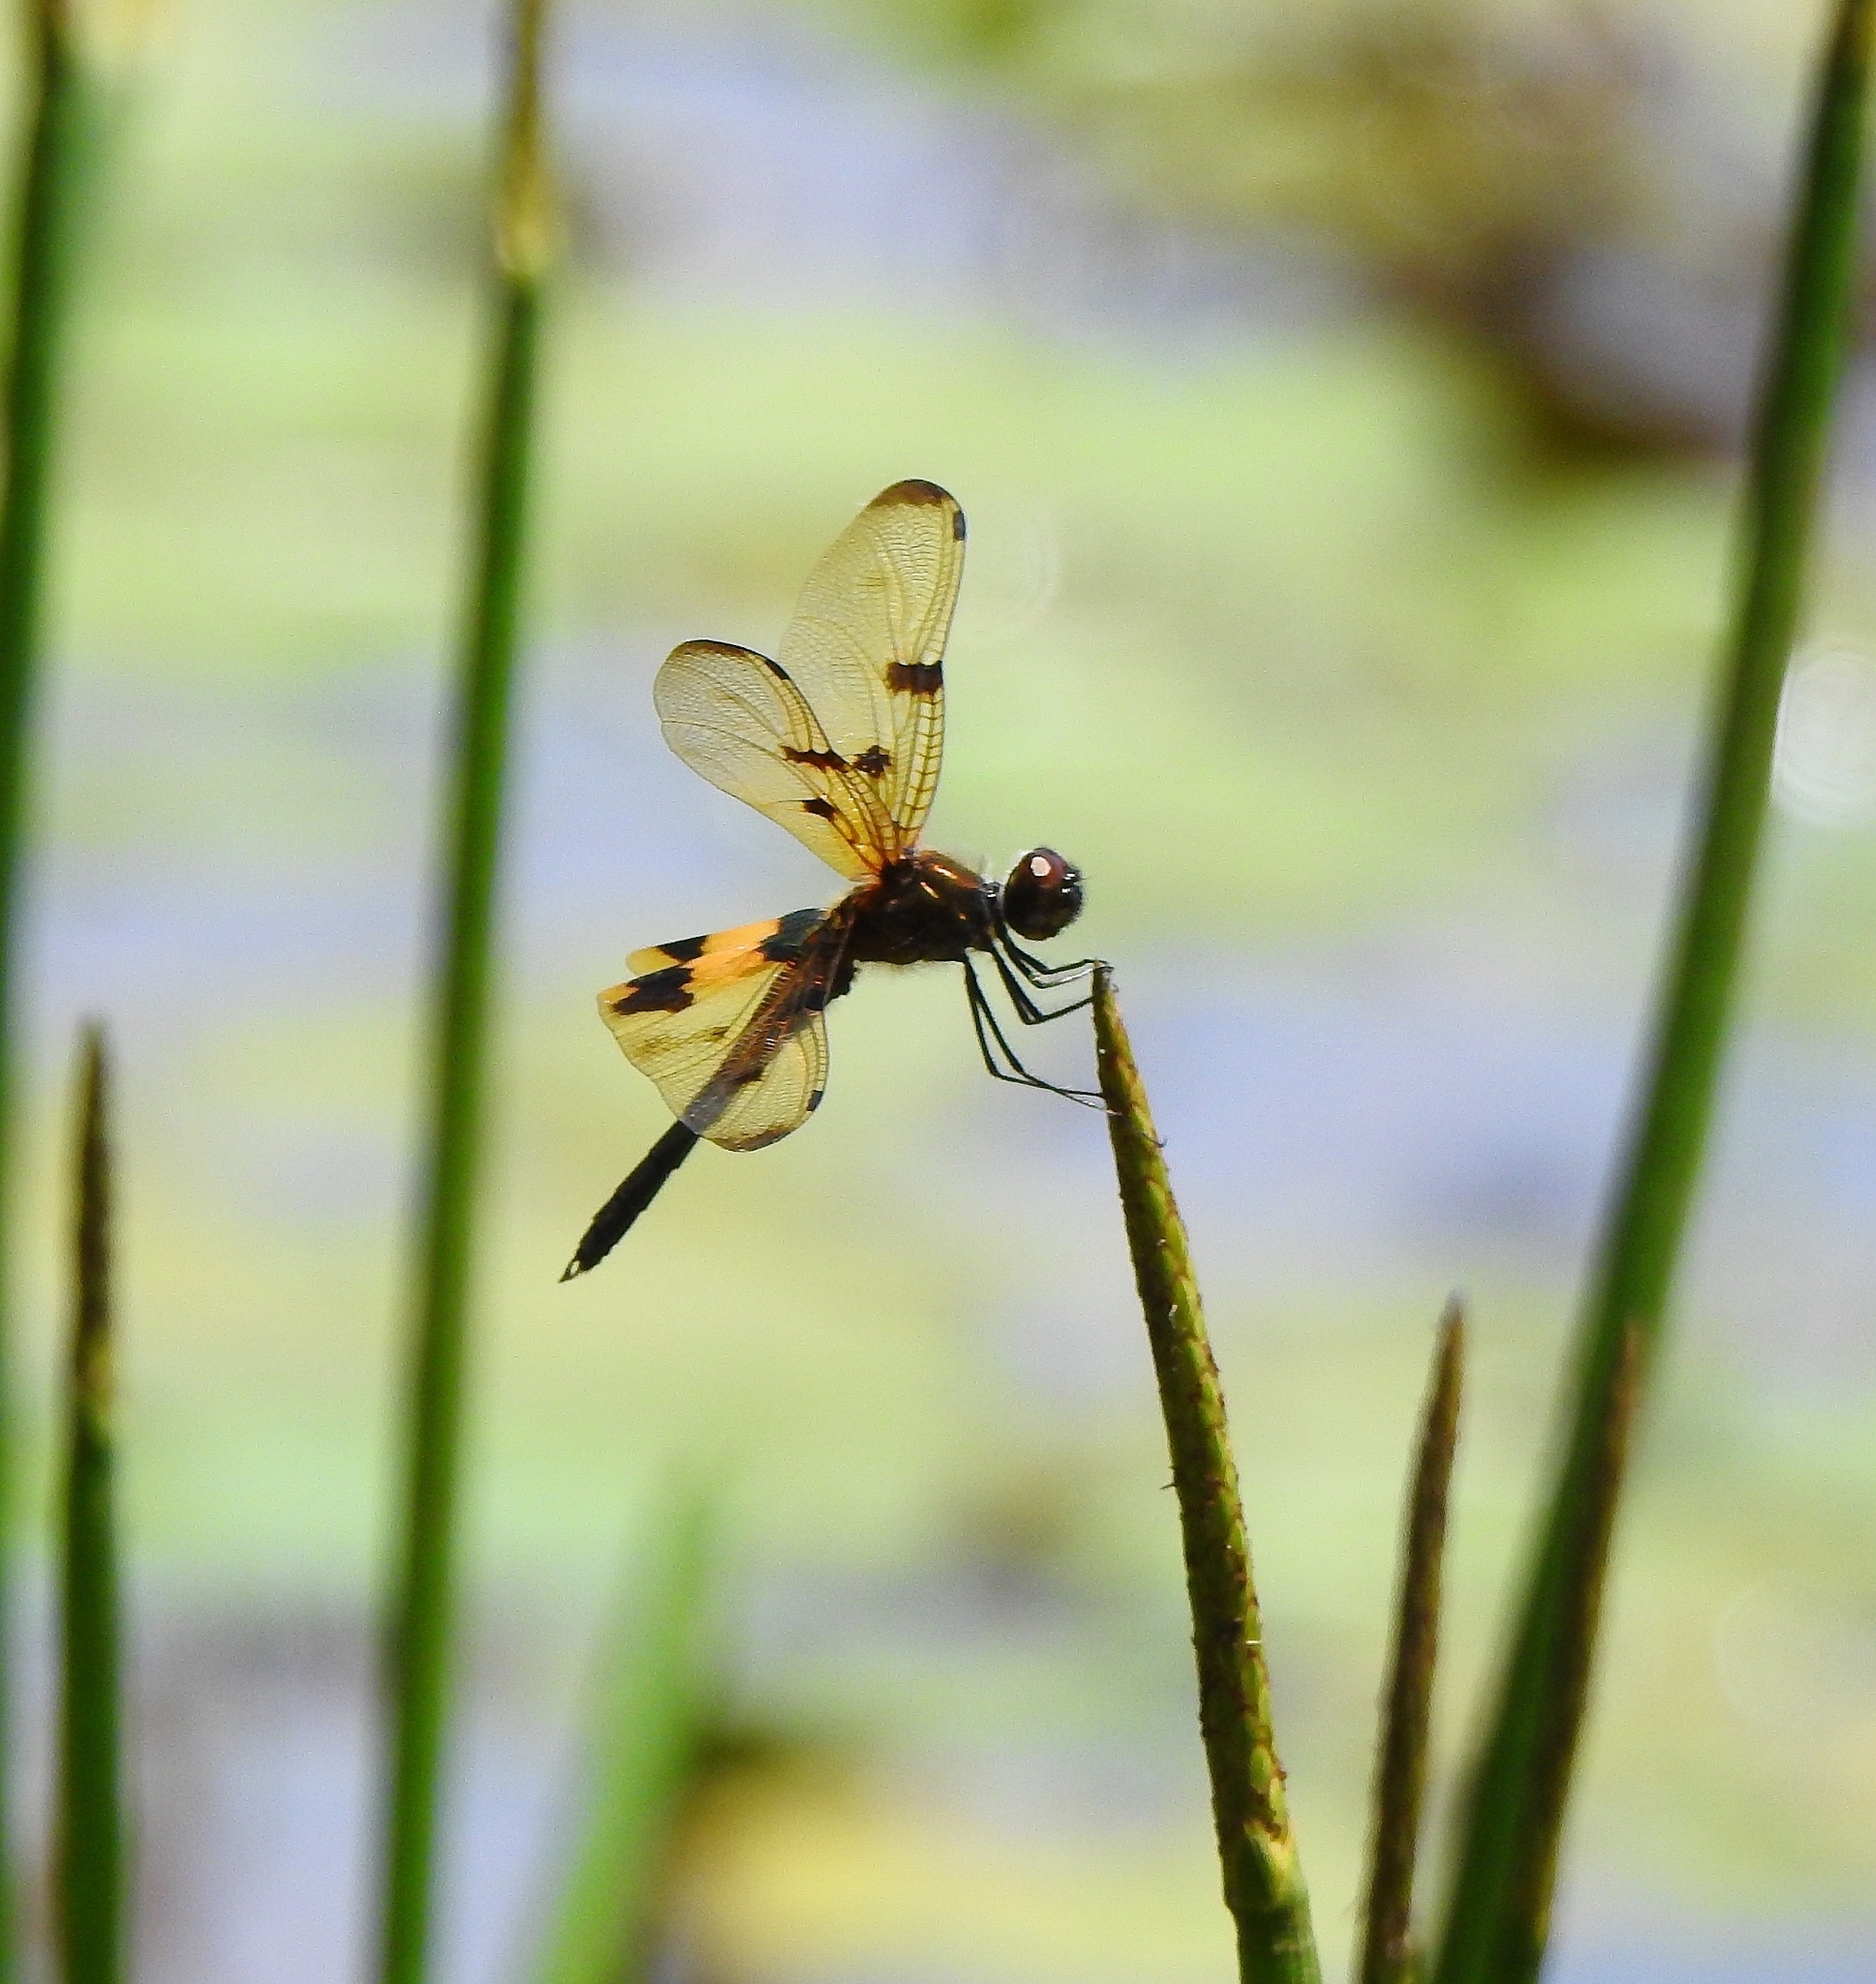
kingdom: Animalia
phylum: Arthropoda
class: Insecta
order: Odonata
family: Libellulidae
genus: Rhyothemis
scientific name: Rhyothemis variegata
